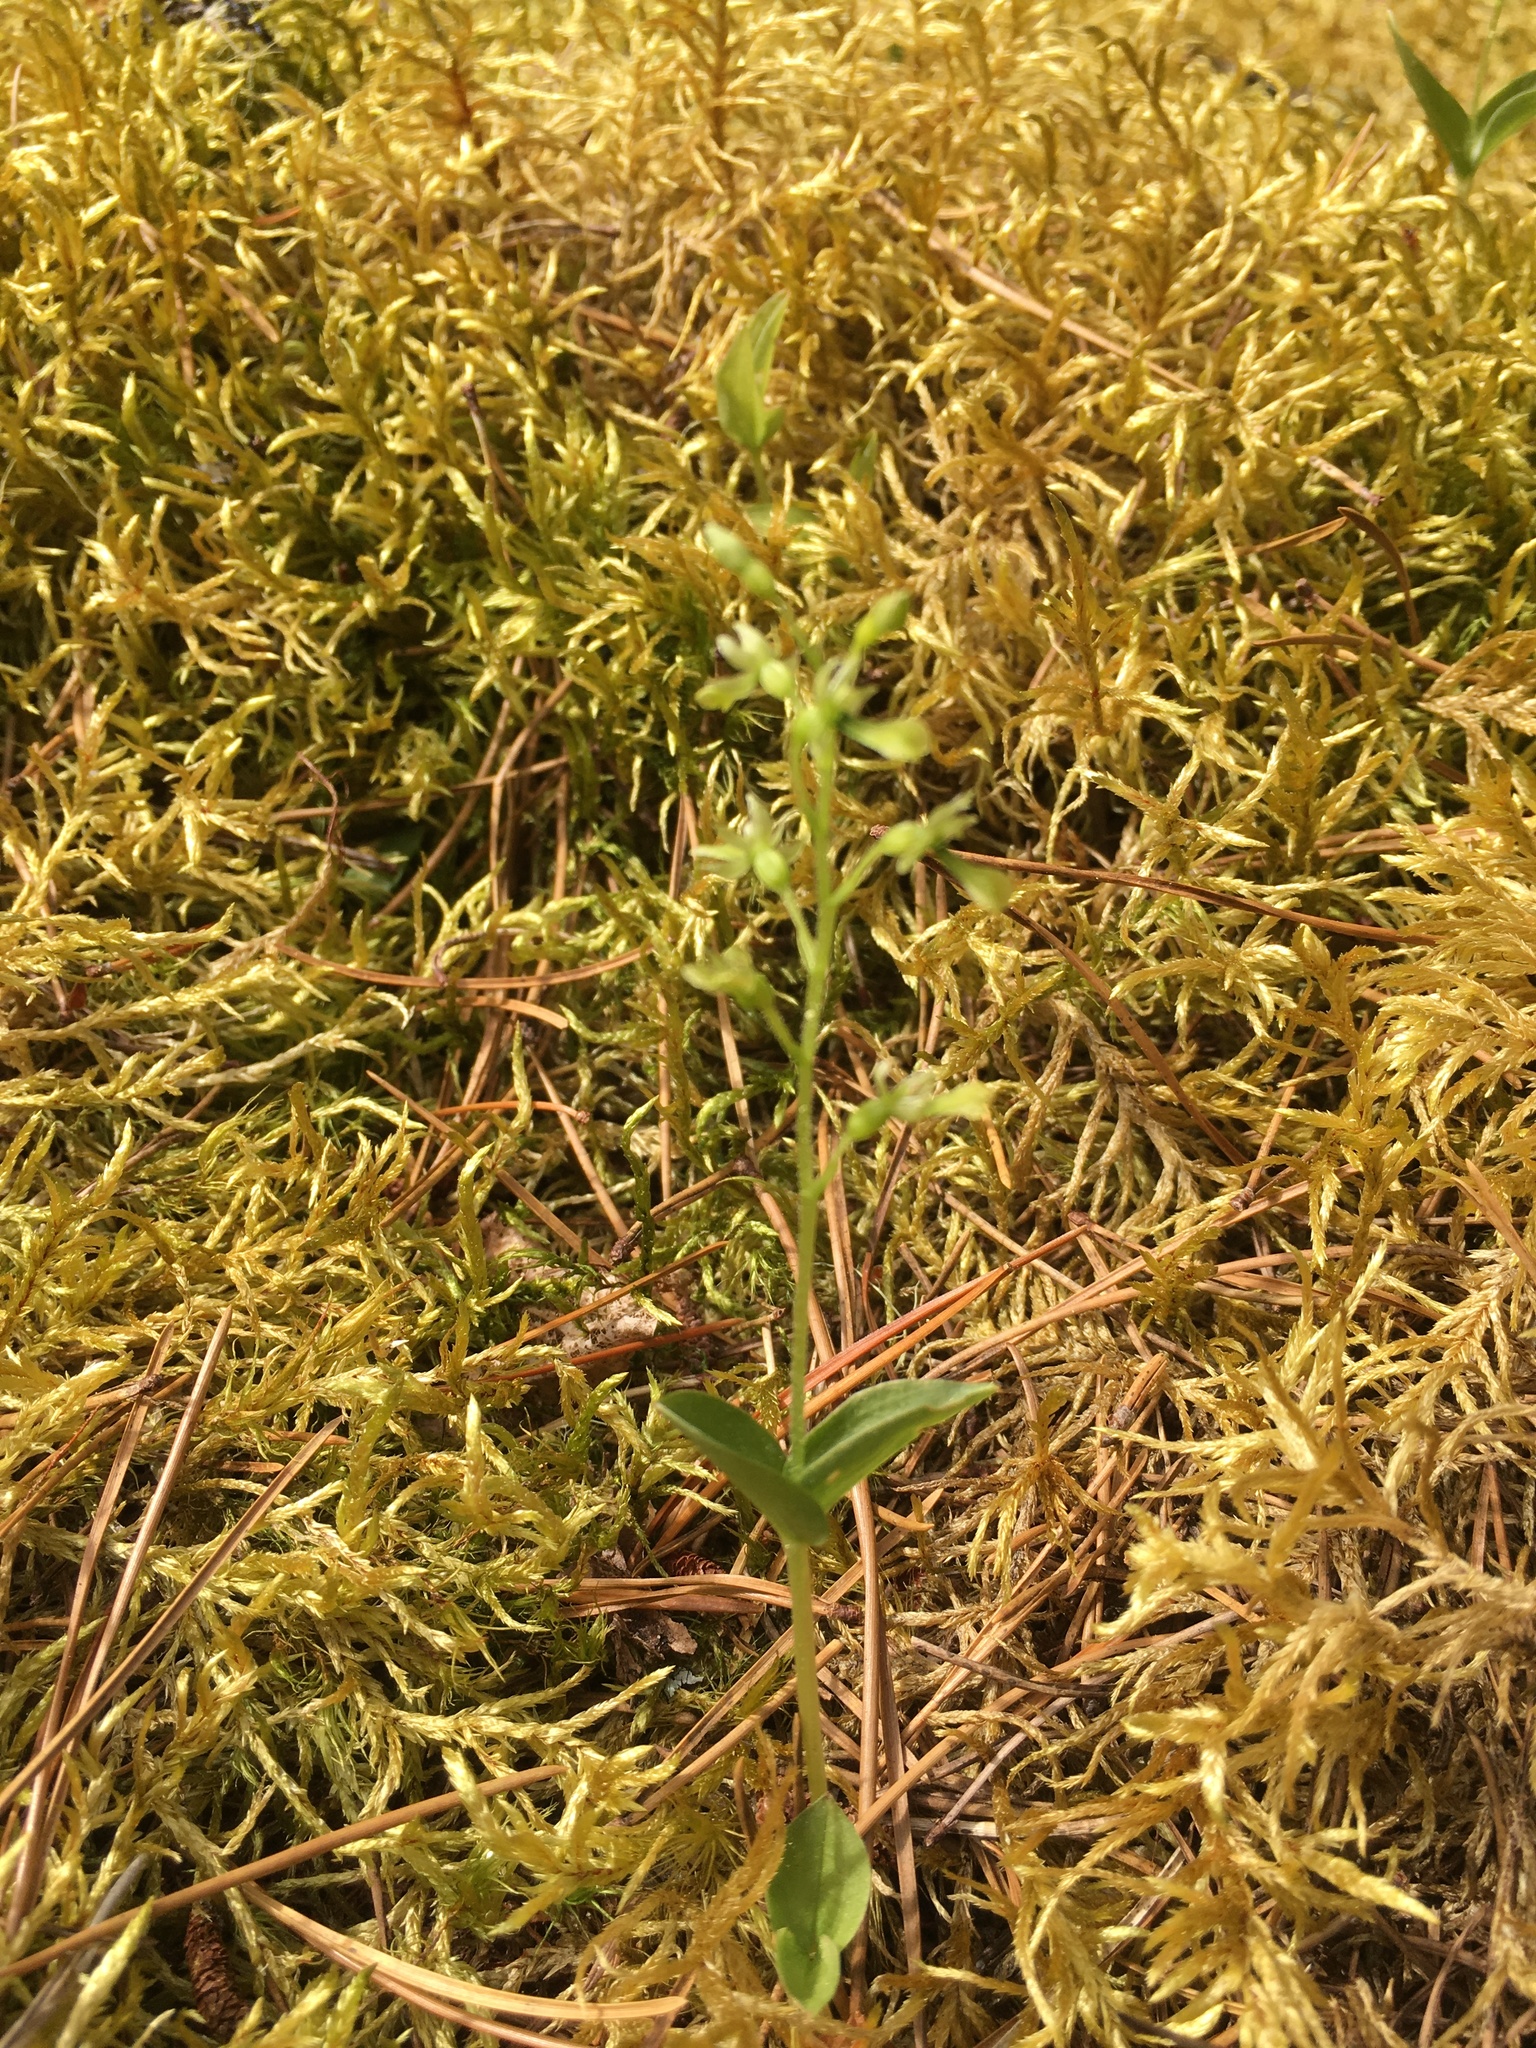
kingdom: Plantae
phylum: Tracheophyta
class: Liliopsida
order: Asparagales
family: Orchidaceae
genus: Neottia
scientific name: Neottia banksiana
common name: Northwestern twayblade
